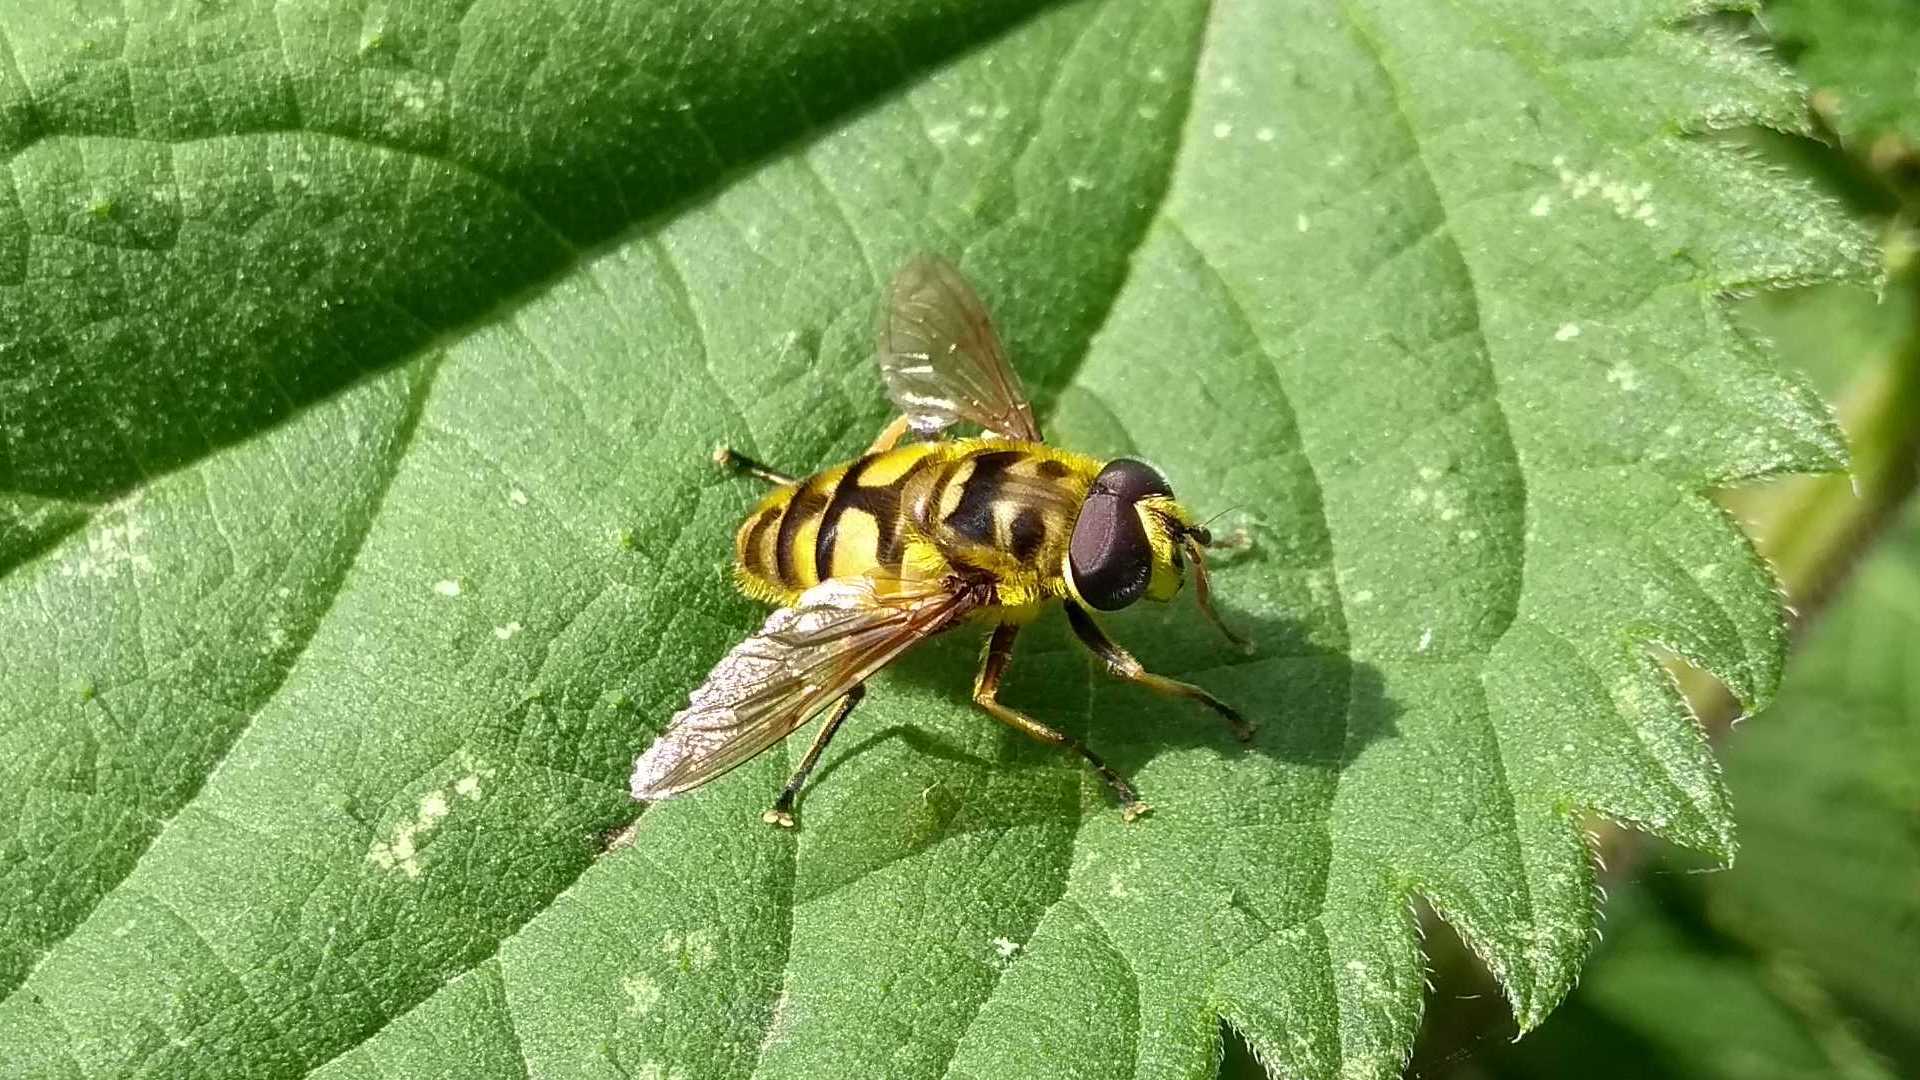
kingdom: Animalia
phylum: Arthropoda
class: Insecta
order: Diptera
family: Syrphidae
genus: Myathropa
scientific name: Myathropa florea
